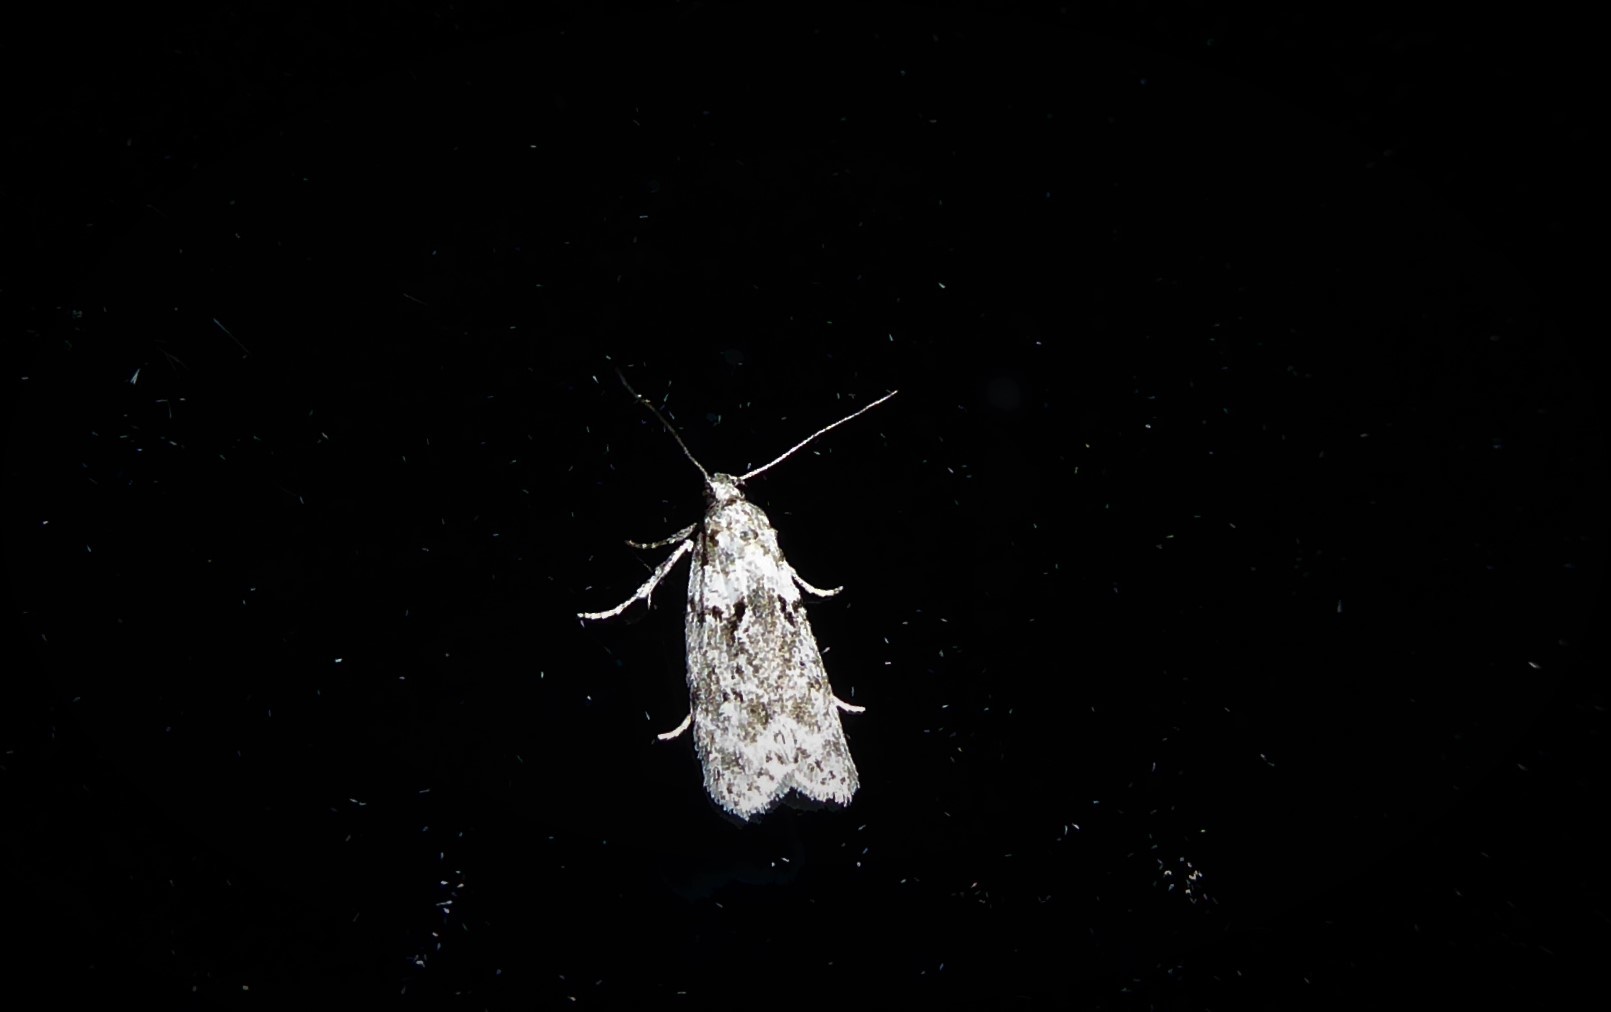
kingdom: Animalia
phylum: Arthropoda
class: Insecta
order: Lepidoptera
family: Oecophoridae
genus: Izatha
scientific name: Izatha convulsella
